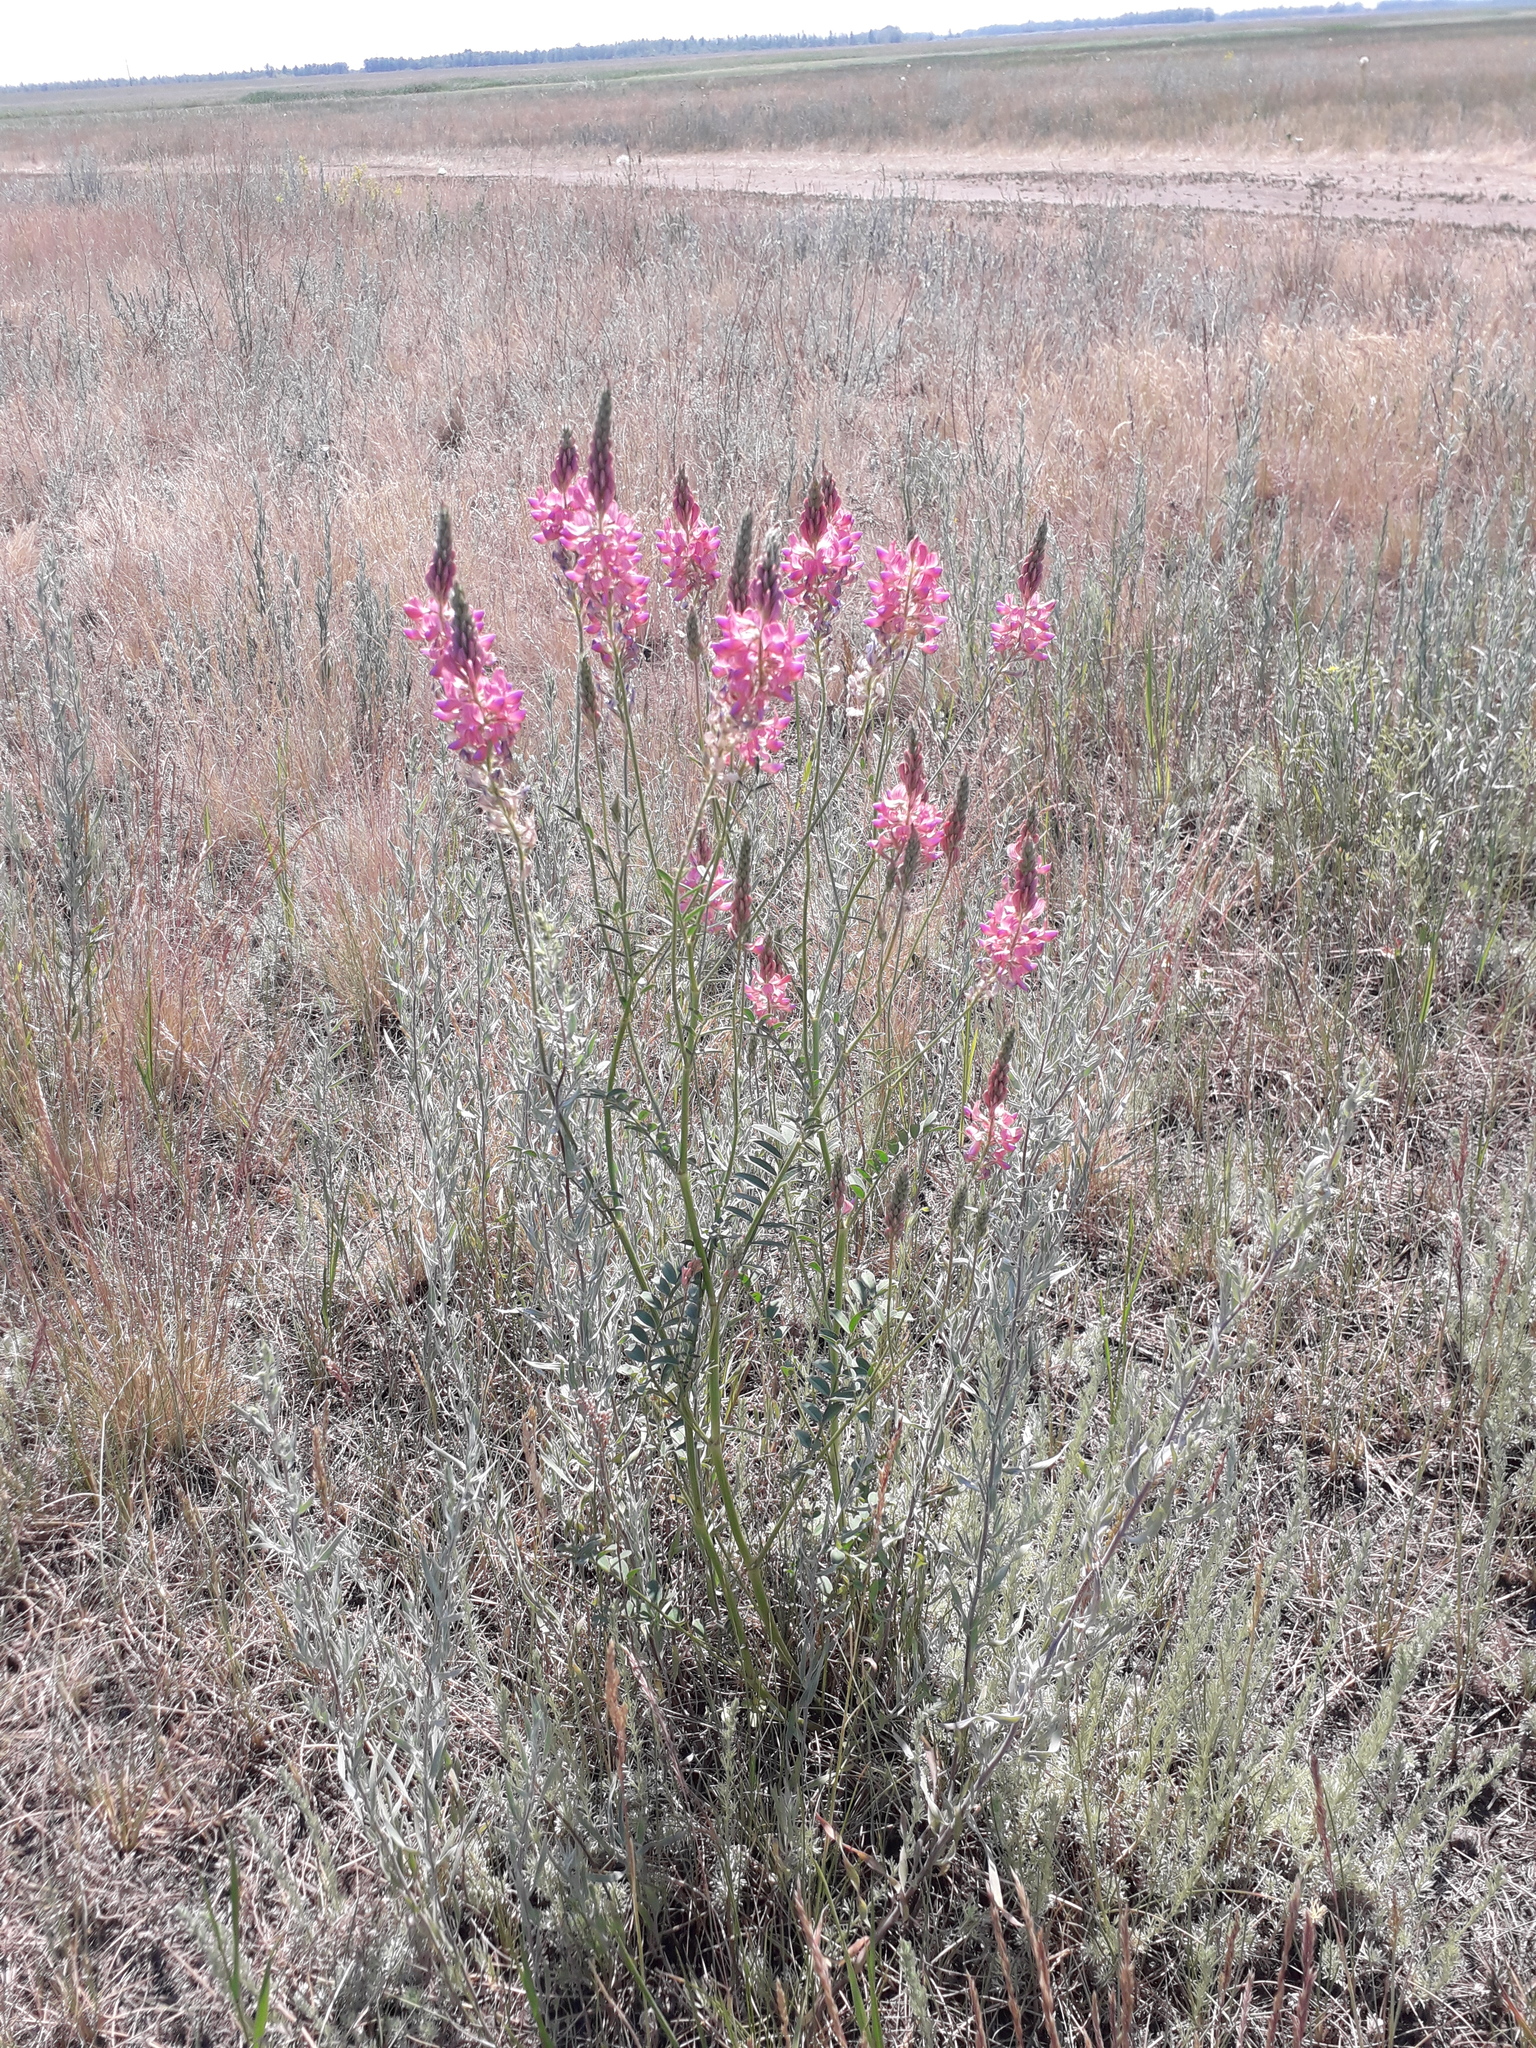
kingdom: Plantae
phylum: Tracheophyta
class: Magnoliopsida
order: Fabales
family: Fabaceae
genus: Onobrychis
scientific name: Onobrychis arenaria
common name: Sand esparcet
